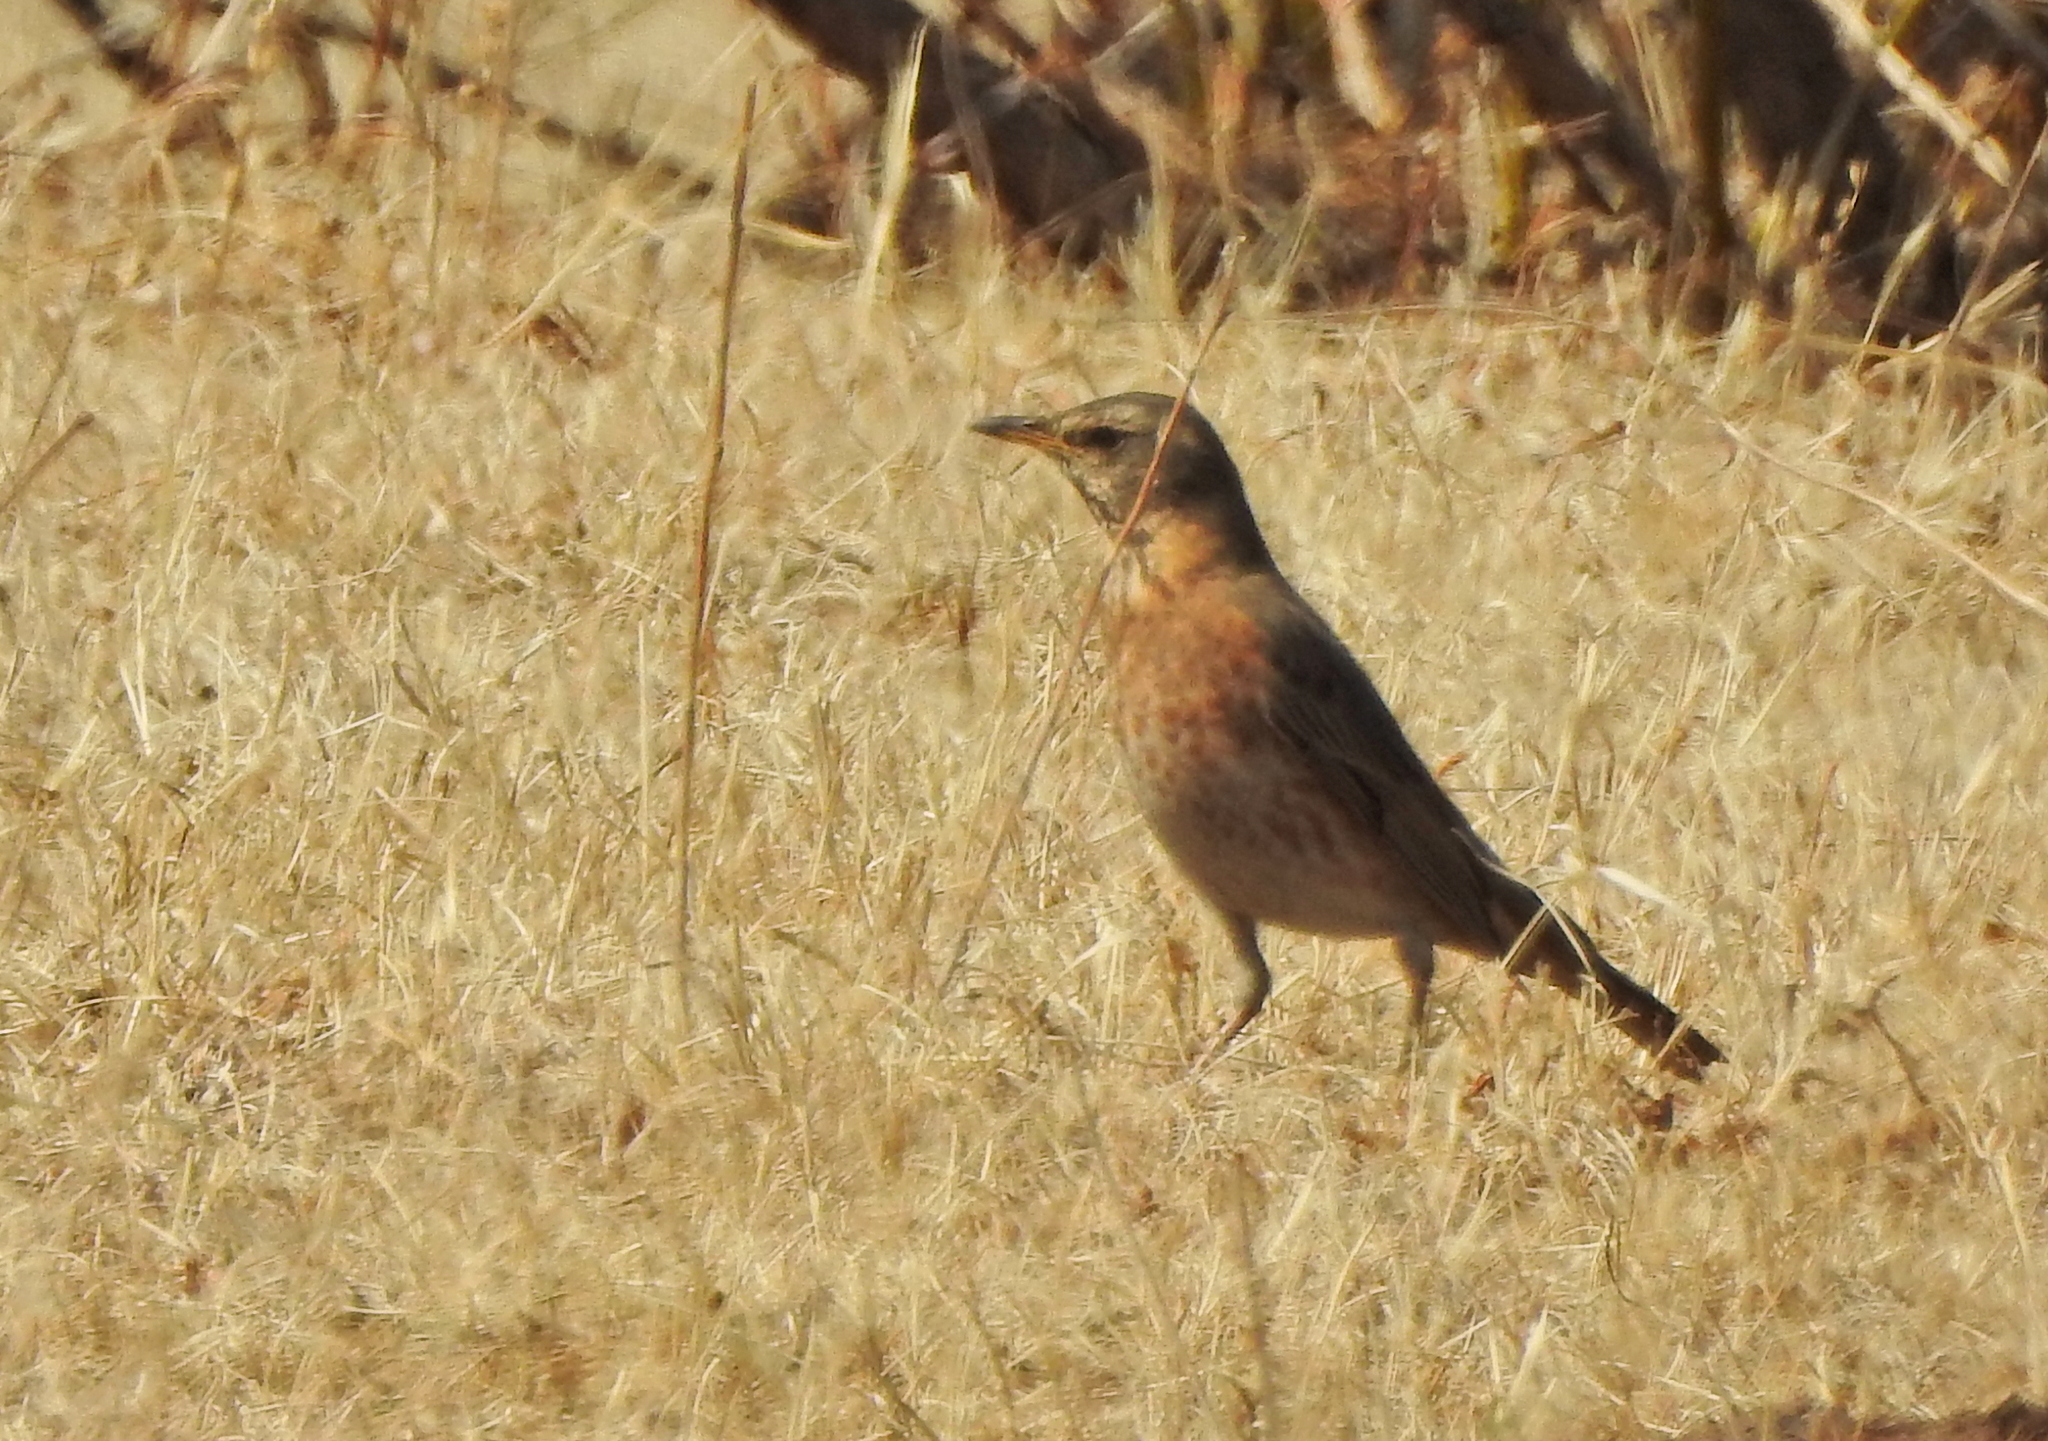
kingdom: Animalia
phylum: Chordata
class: Aves
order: Passeriformes
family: Turdidae
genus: Turdus
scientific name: Turdus naumanni
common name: Naumann's thrush
